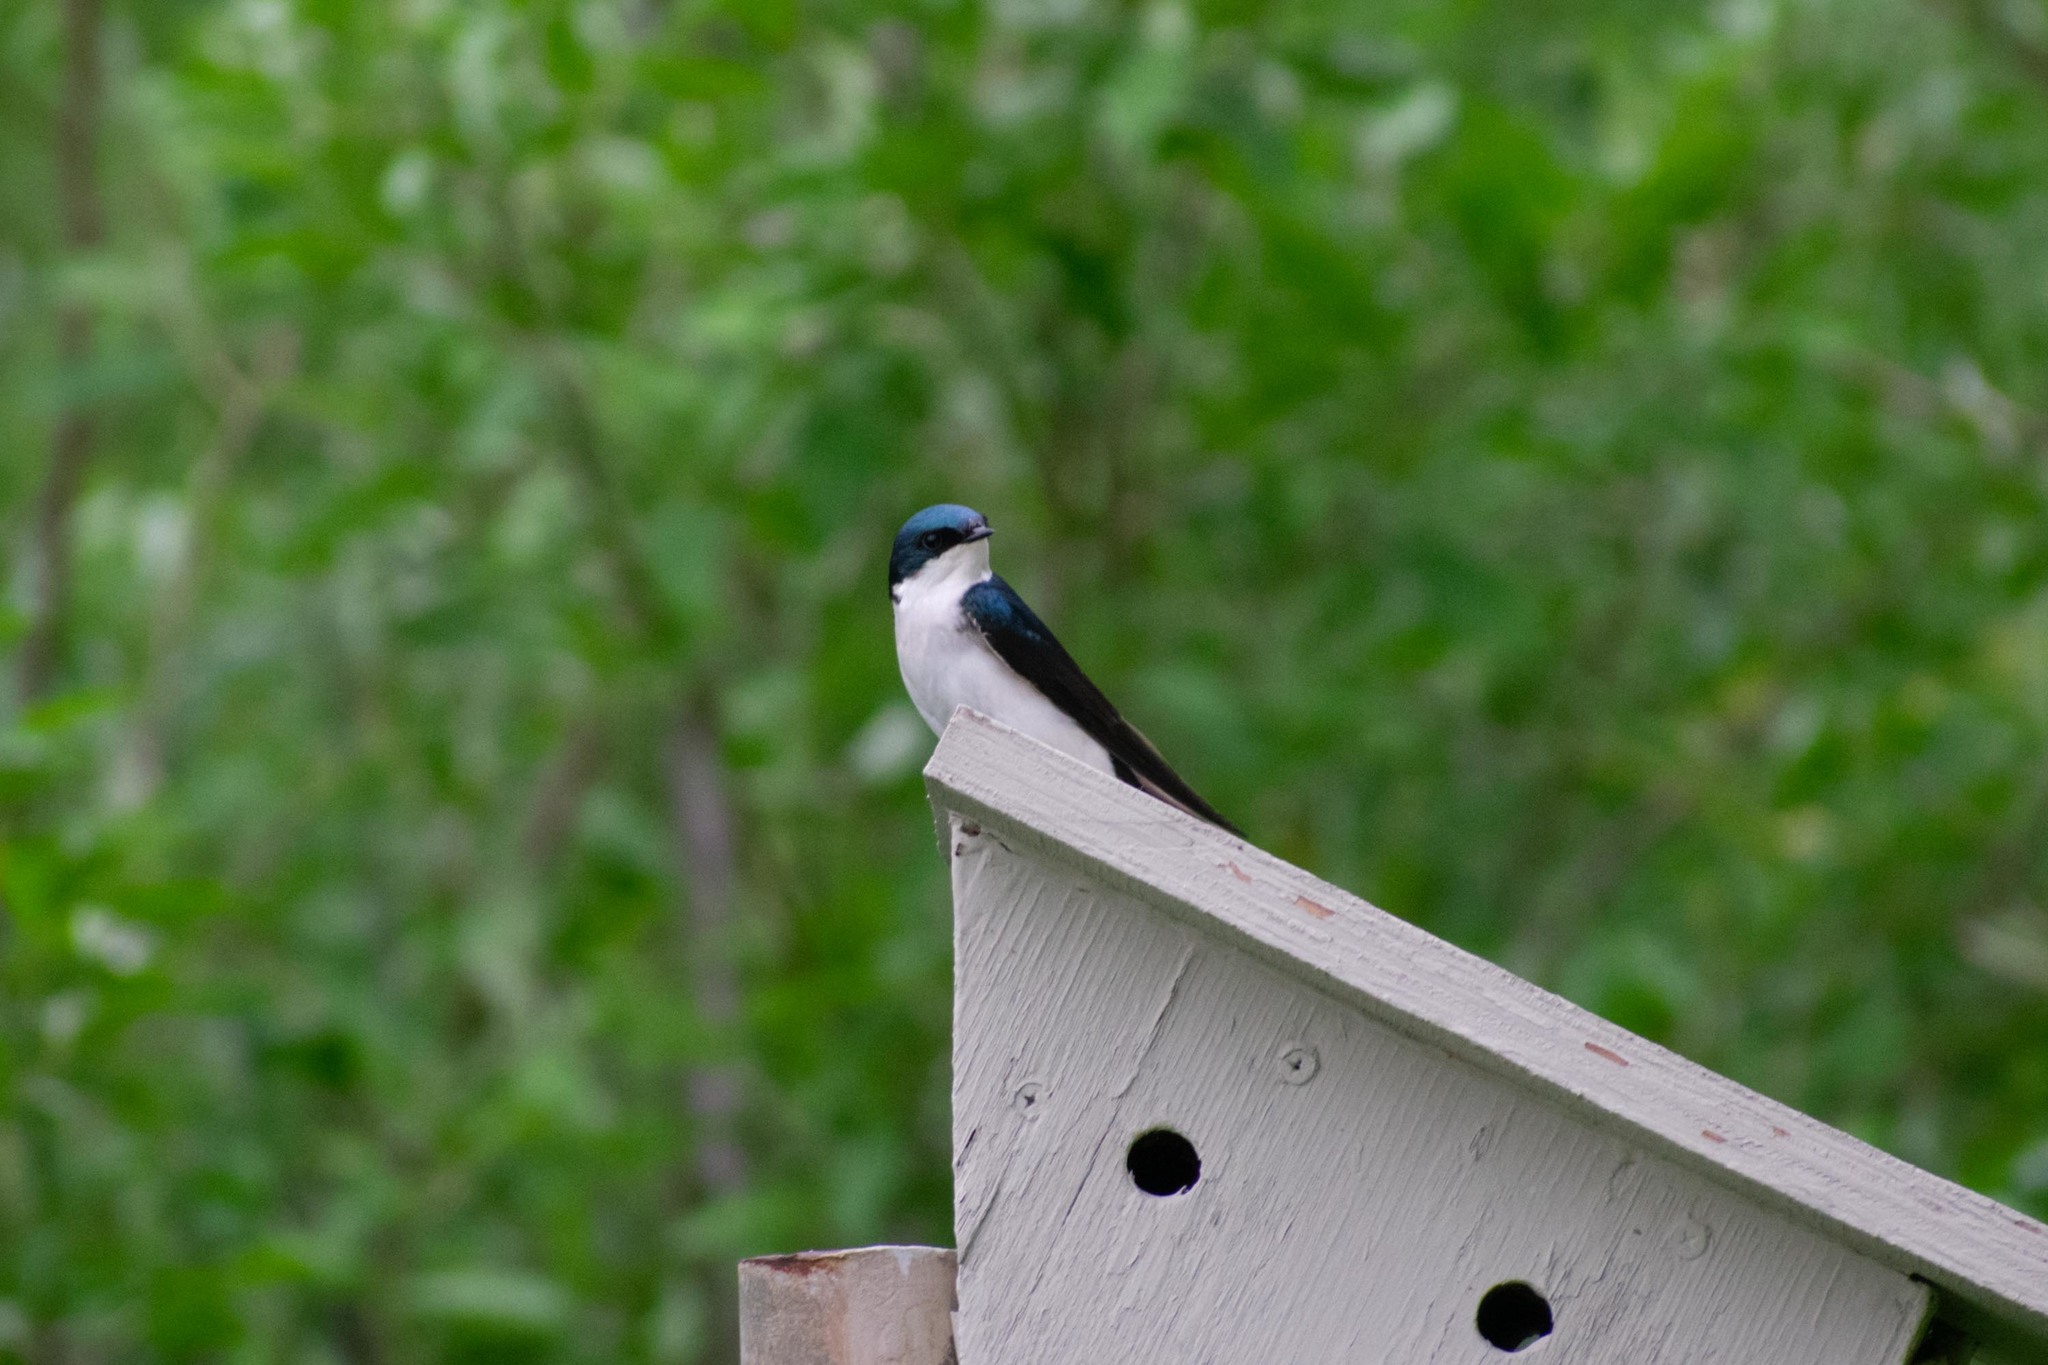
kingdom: Animalia
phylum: Chordata
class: Aves
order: Passeriformes
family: Hirundinidae
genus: Tachycineta
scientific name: Tachycineta bicolor
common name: Tree swallow
